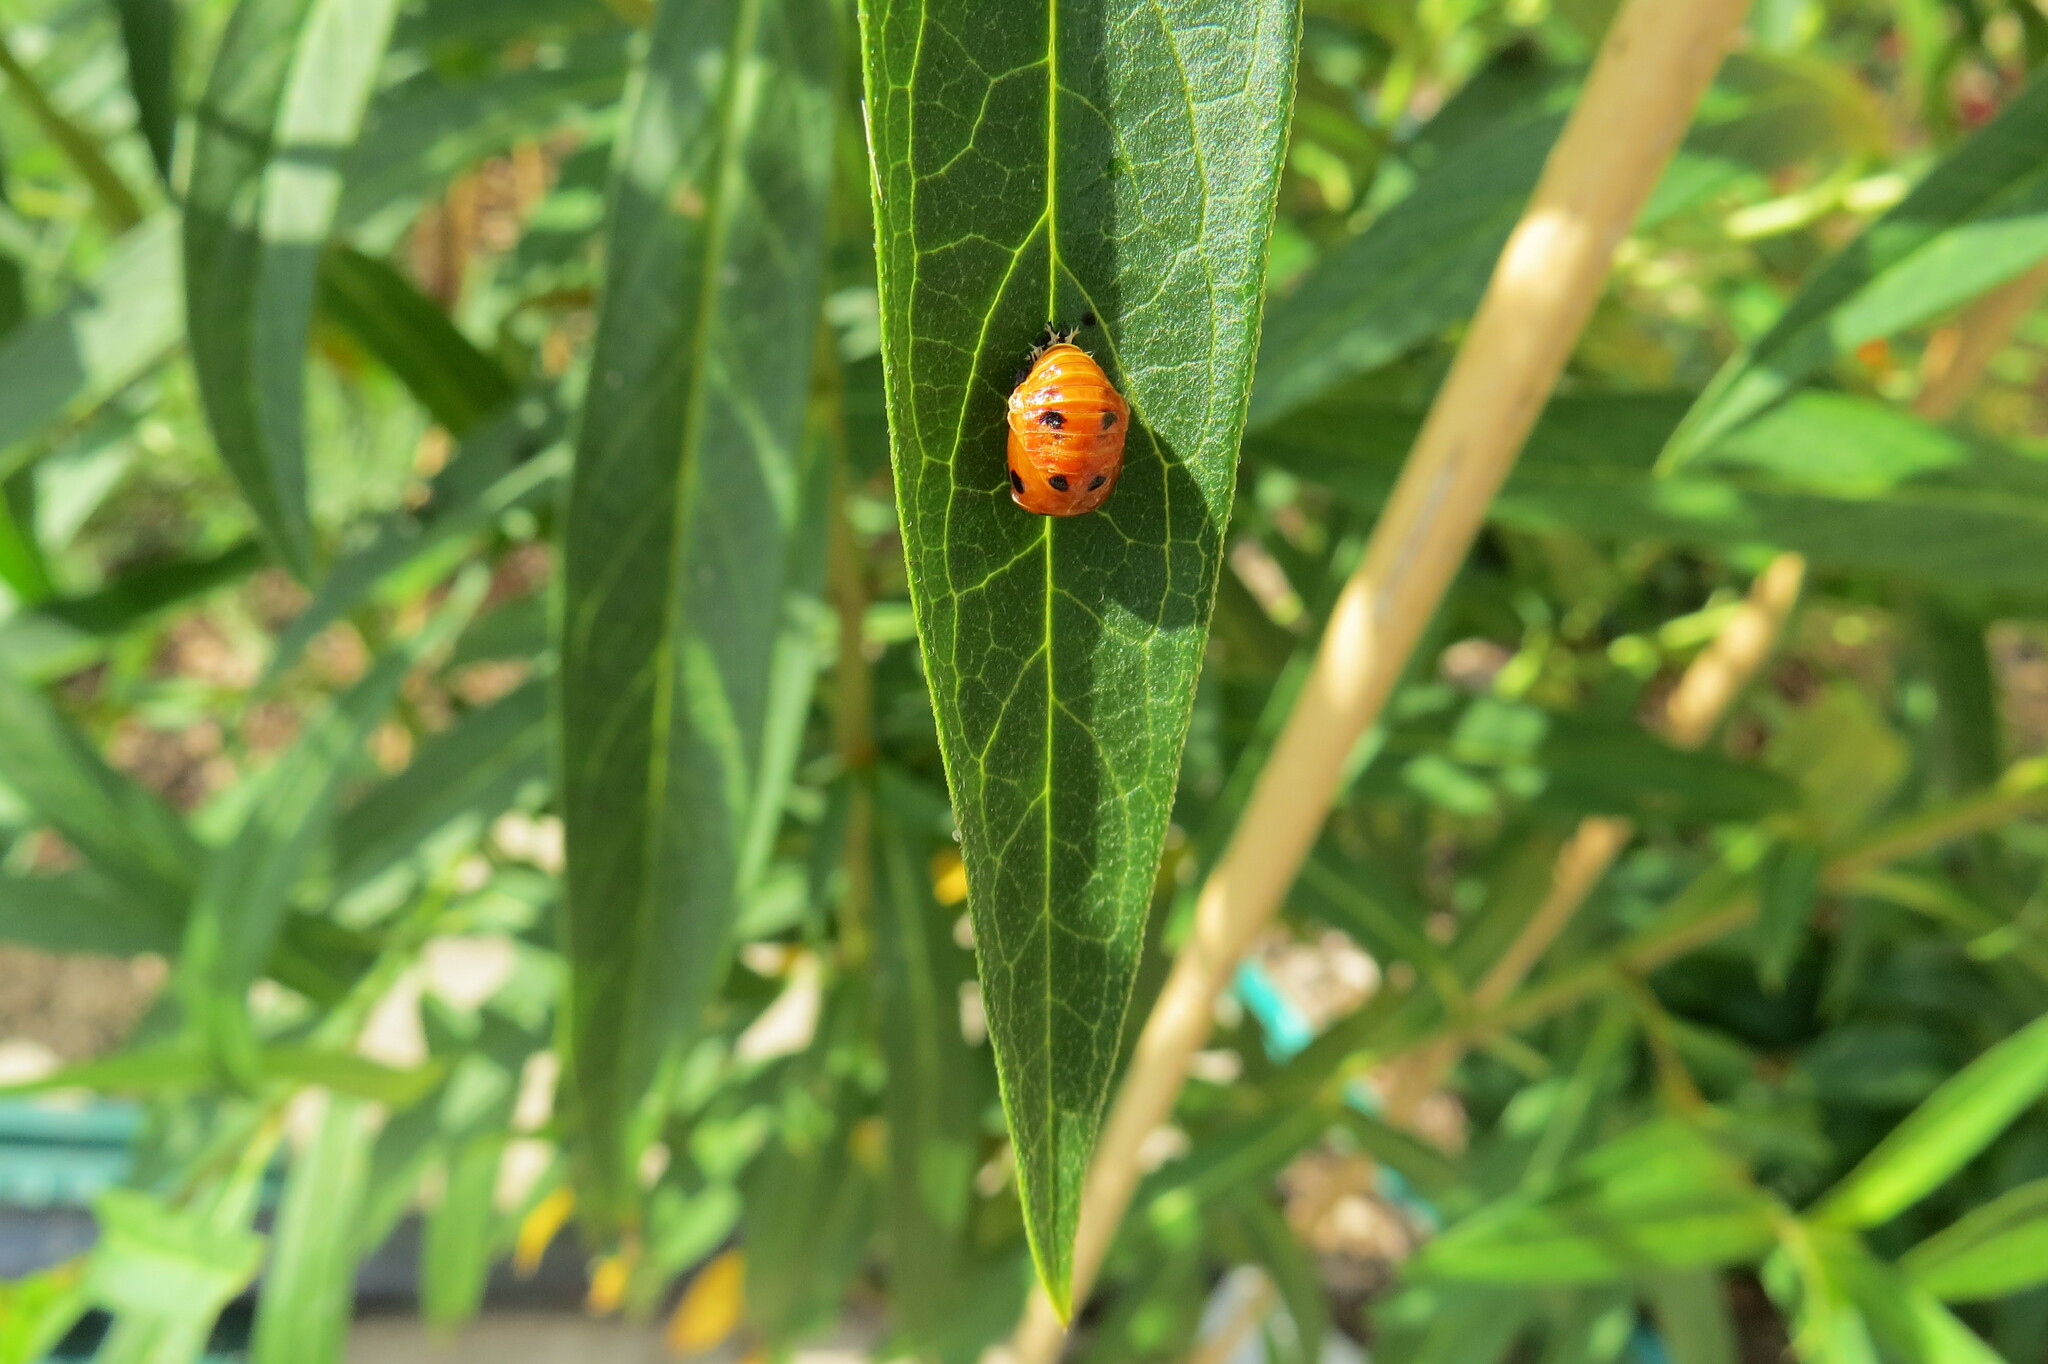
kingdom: Animalia
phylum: Arthropoda
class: Insecta
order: Coleoptera
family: Coccinellidae
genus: Harmonia
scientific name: Harmonia axyridis
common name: Harlequin ladybird
